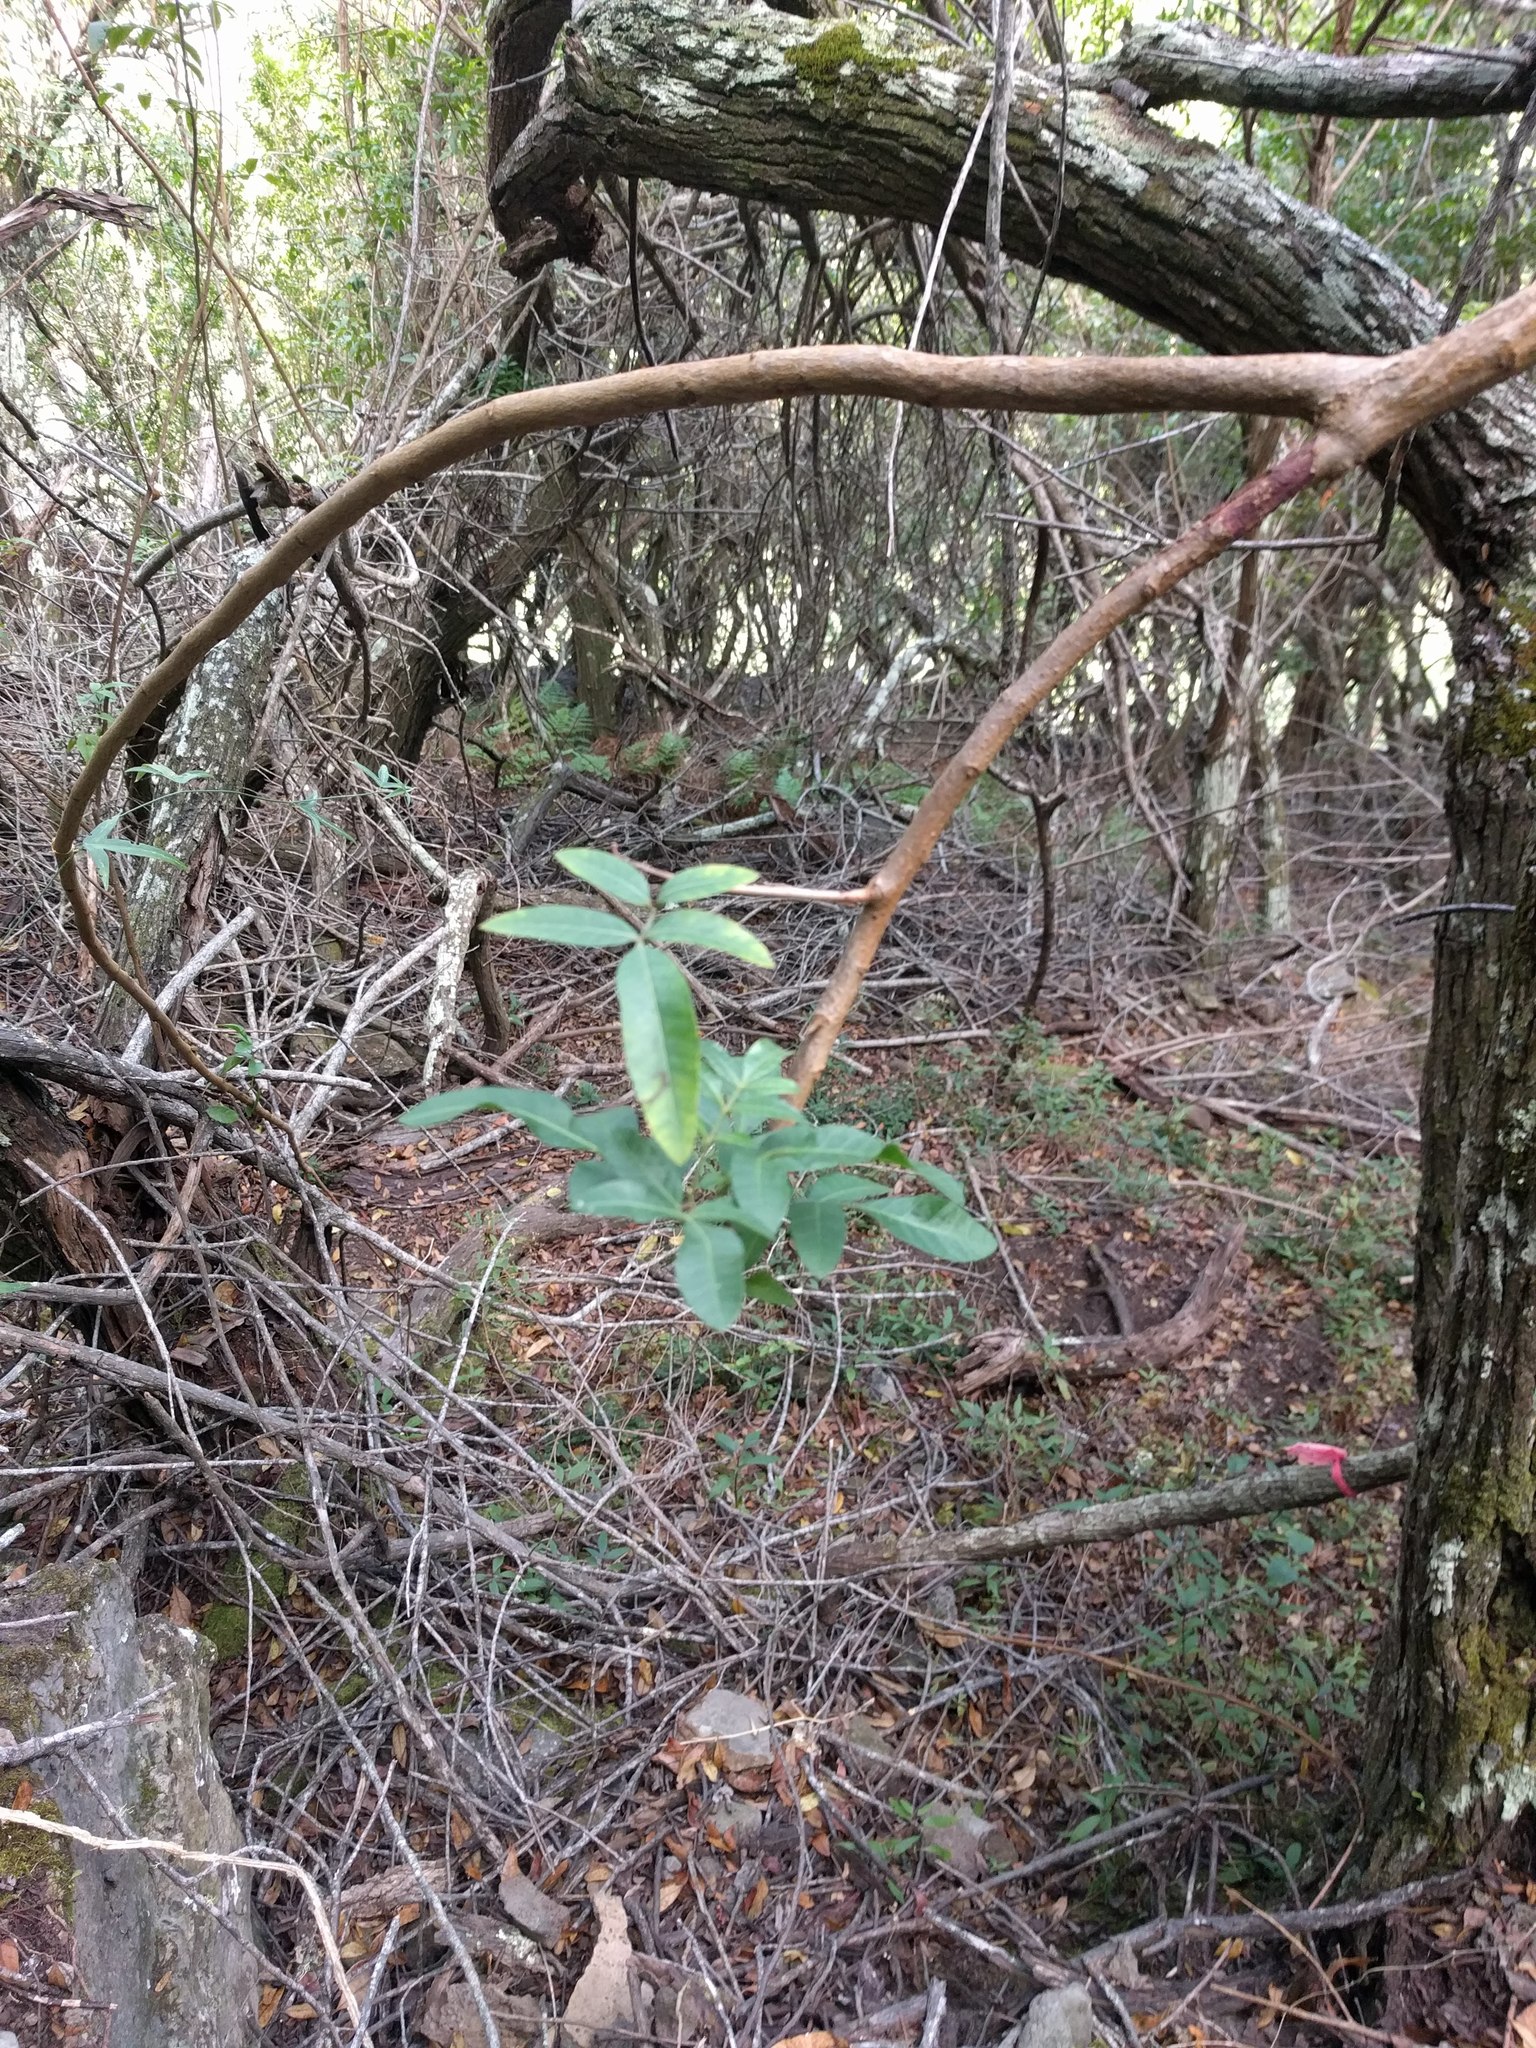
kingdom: Plantae
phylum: Tracheophyta
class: Magnoliopsida
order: Sapindales
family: Anacardiaceae
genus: Schinus
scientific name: Schinus terebinthifolia
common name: Brazilian peppertree
